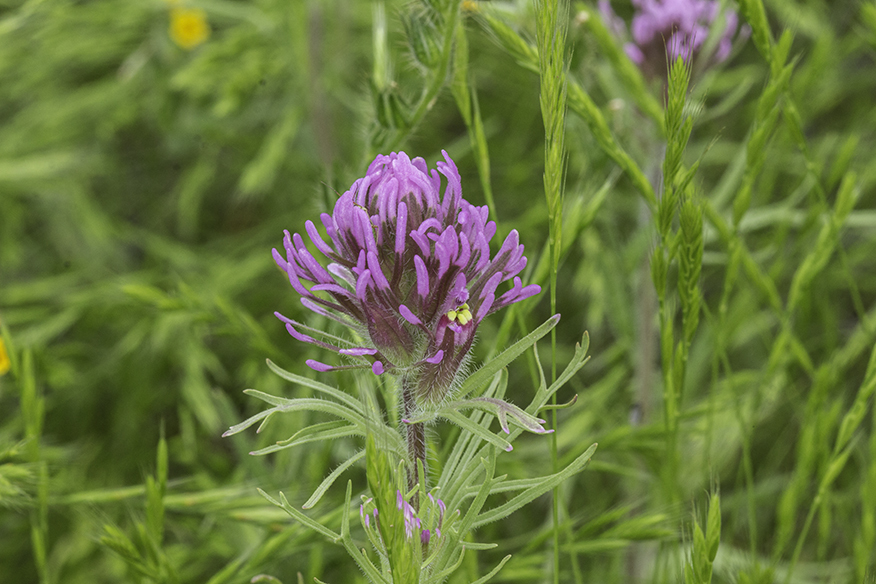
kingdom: Plantae
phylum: Tracheophyta
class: Magnoliopsida
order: Lamiales
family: Orobanchaceae
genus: Castilleja
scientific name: Castilleja exserta
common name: Purple owl-clover
